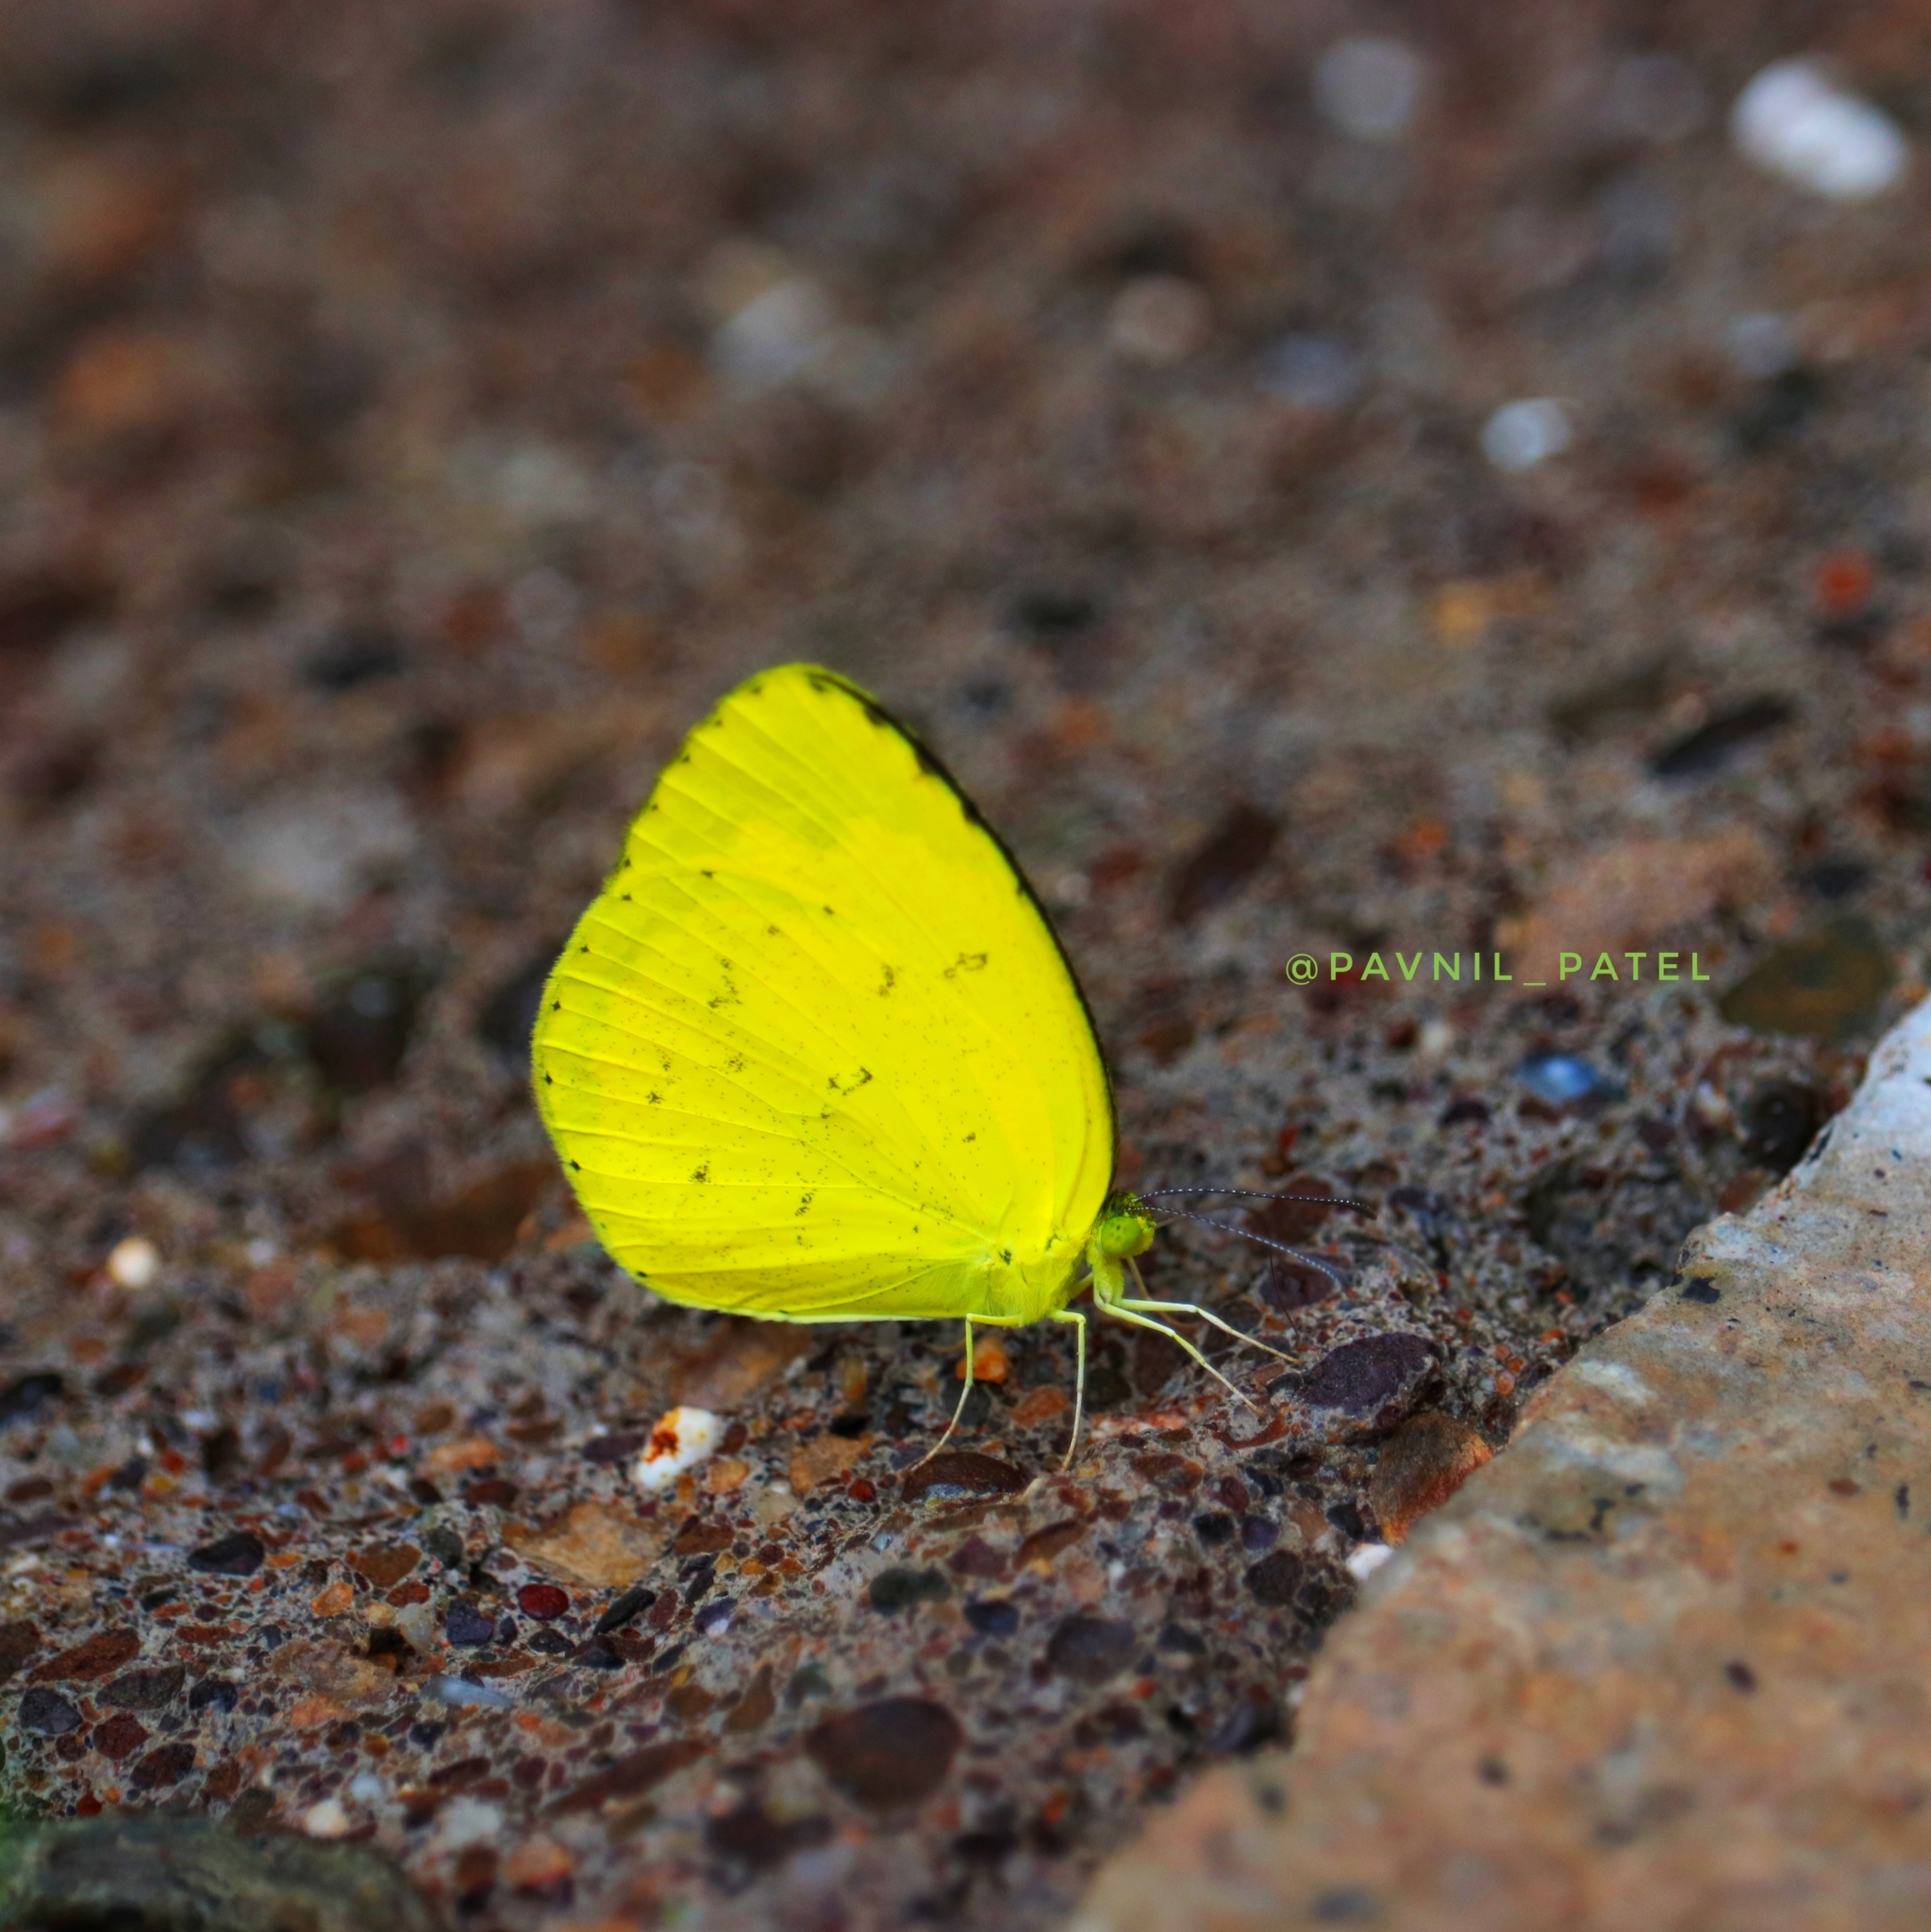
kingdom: Animalia
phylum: Arthropoda
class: Insecta
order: Lepidoptera
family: Pieridae
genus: Eurema
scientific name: Eurema hecabe
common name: Pale grass yellow
